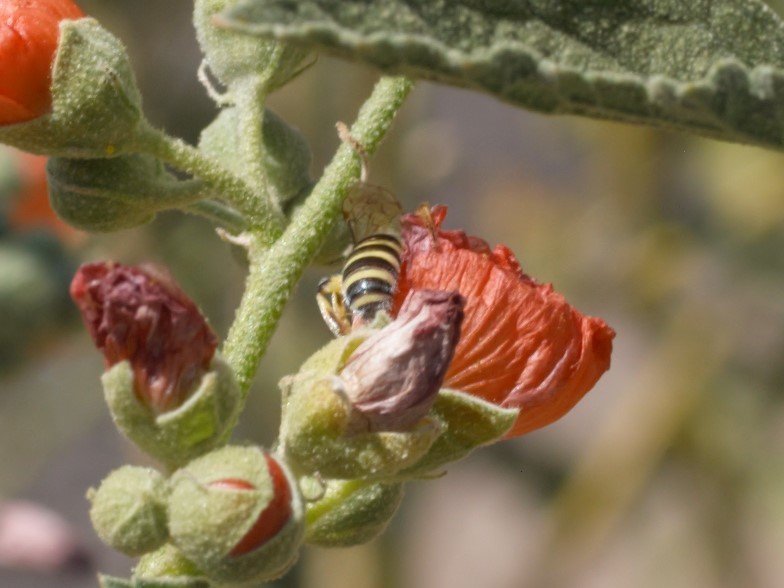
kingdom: Animalia
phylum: Arthropoda
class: Insecta
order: Hymenoptera
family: Halictidae
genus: Agapostemon
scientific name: Agapostemon
